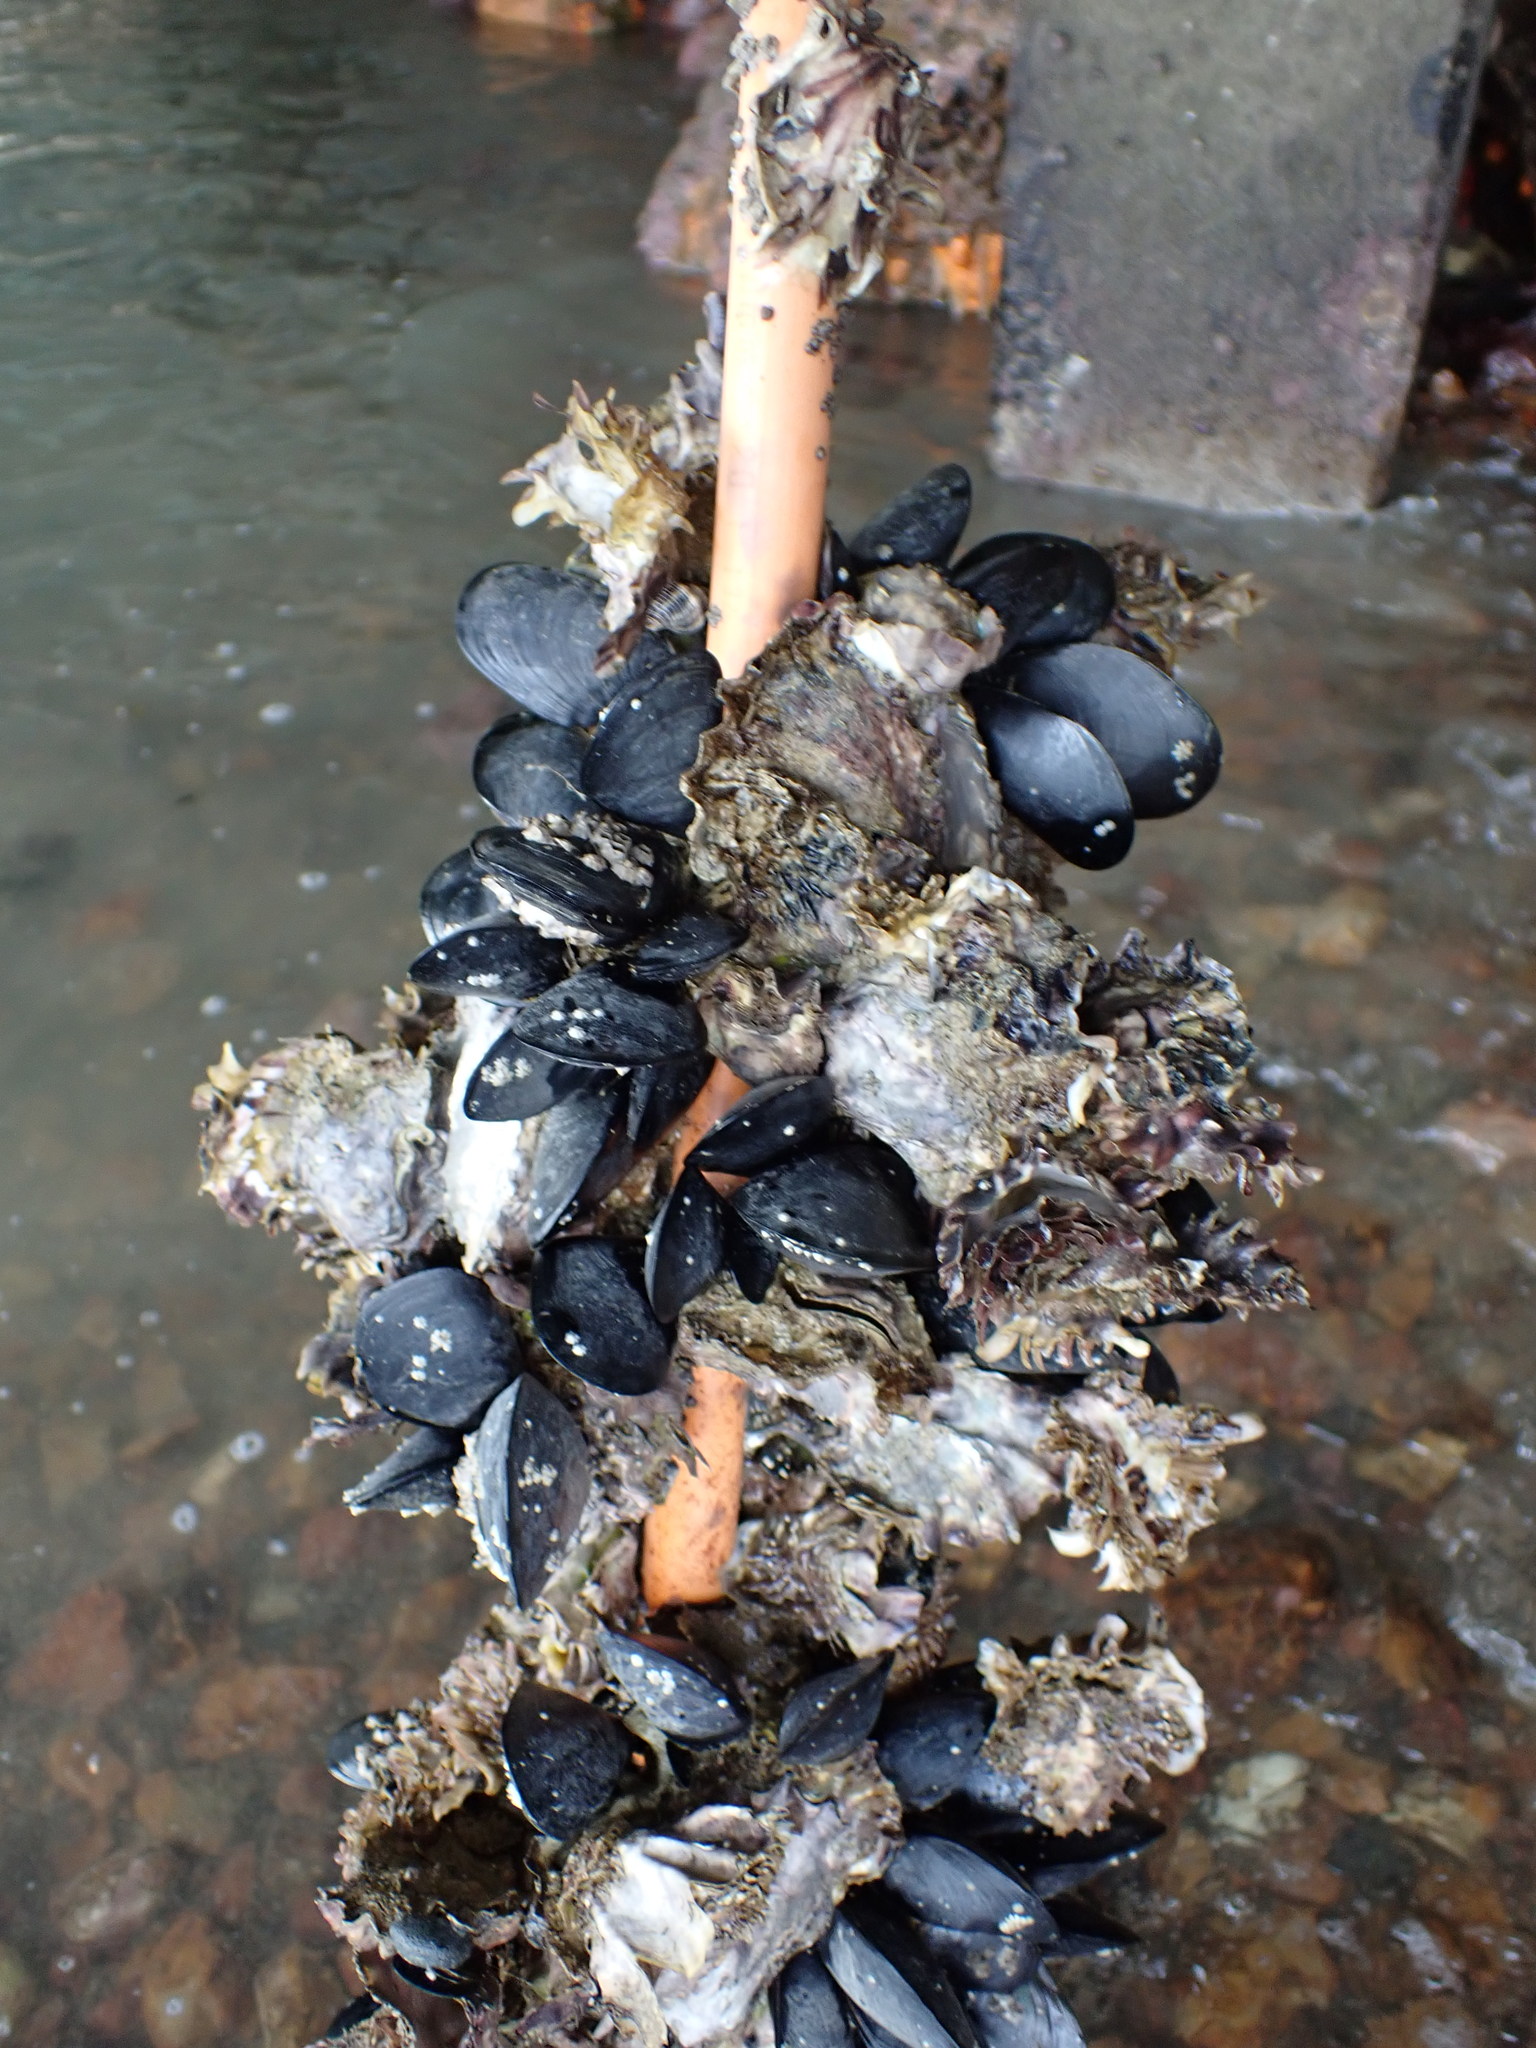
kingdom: Animalia
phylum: Mollusca
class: Bivalvia
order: Ostreida
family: Ostreidae
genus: Magallana
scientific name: Magallana gigas
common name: Pacific oyster
